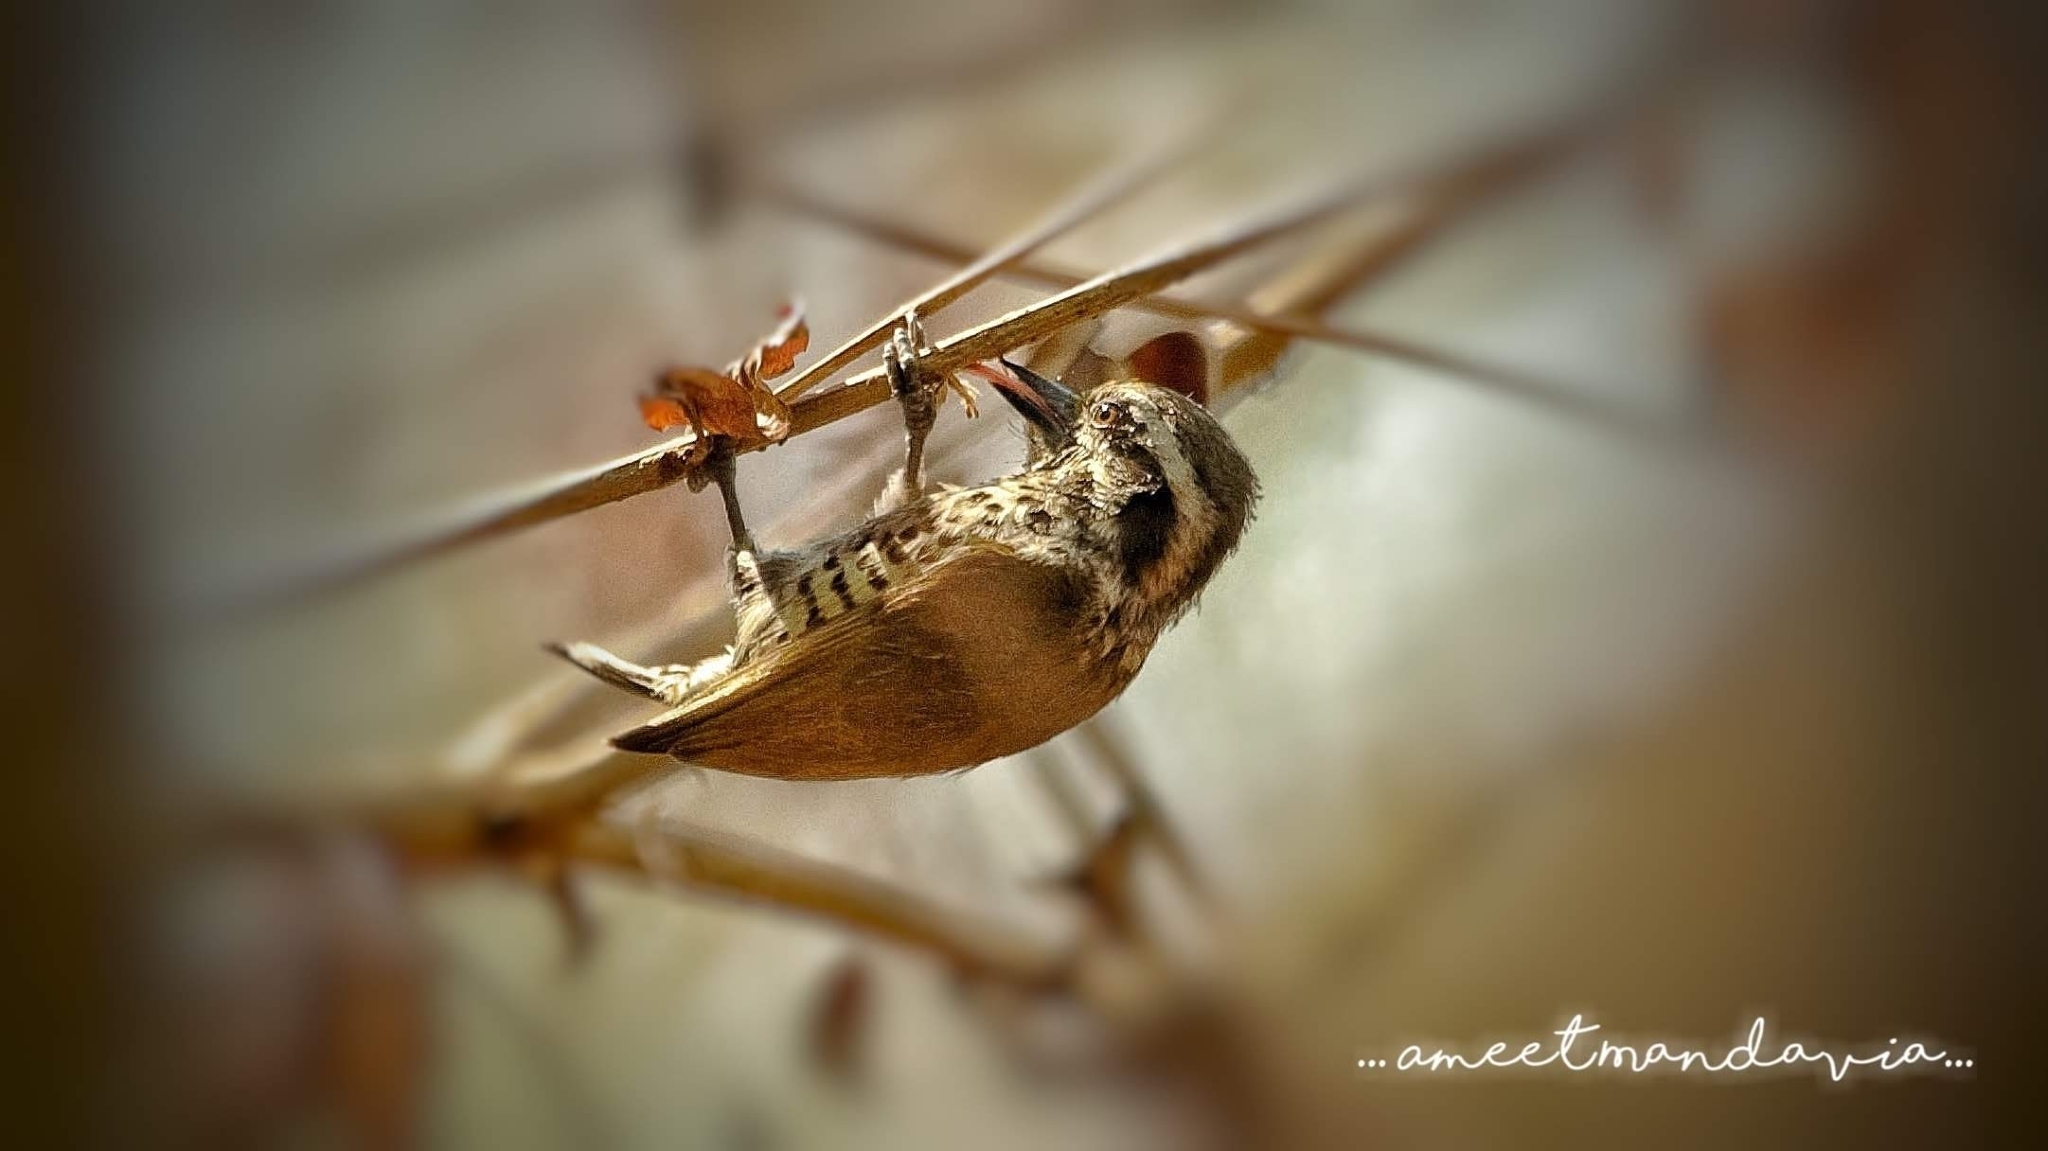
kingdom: Animalia
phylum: Chordata
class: Aves
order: Piciformes
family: Picidae
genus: Picumnus
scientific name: Picumnus innominatus
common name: Speckled piculet
